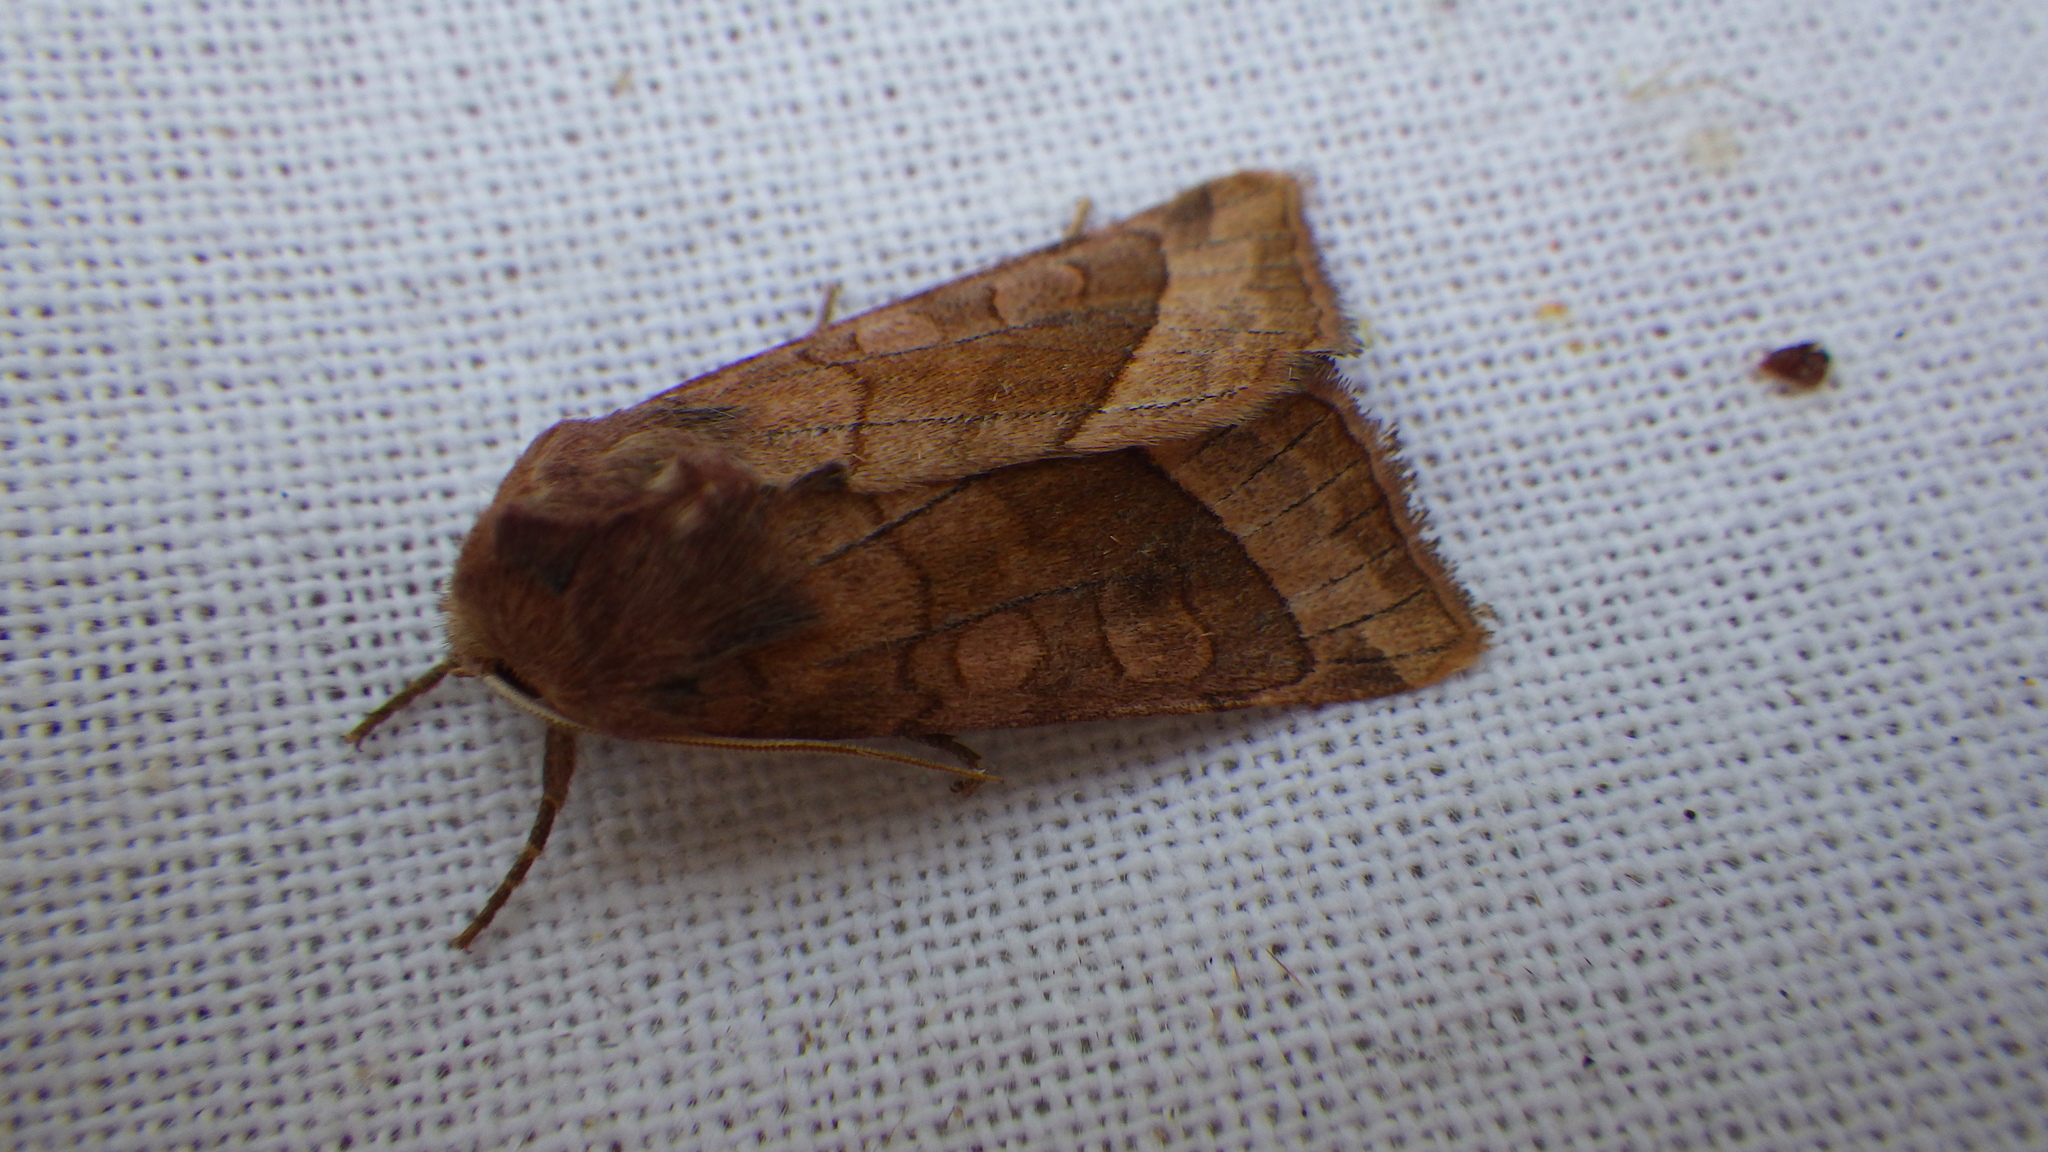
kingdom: Animalia
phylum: Arthropoda
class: Insecta
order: Lepidoptera
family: Noctuidae
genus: Hydraecia
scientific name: Hydraecia micacea
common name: Rosy rustic
